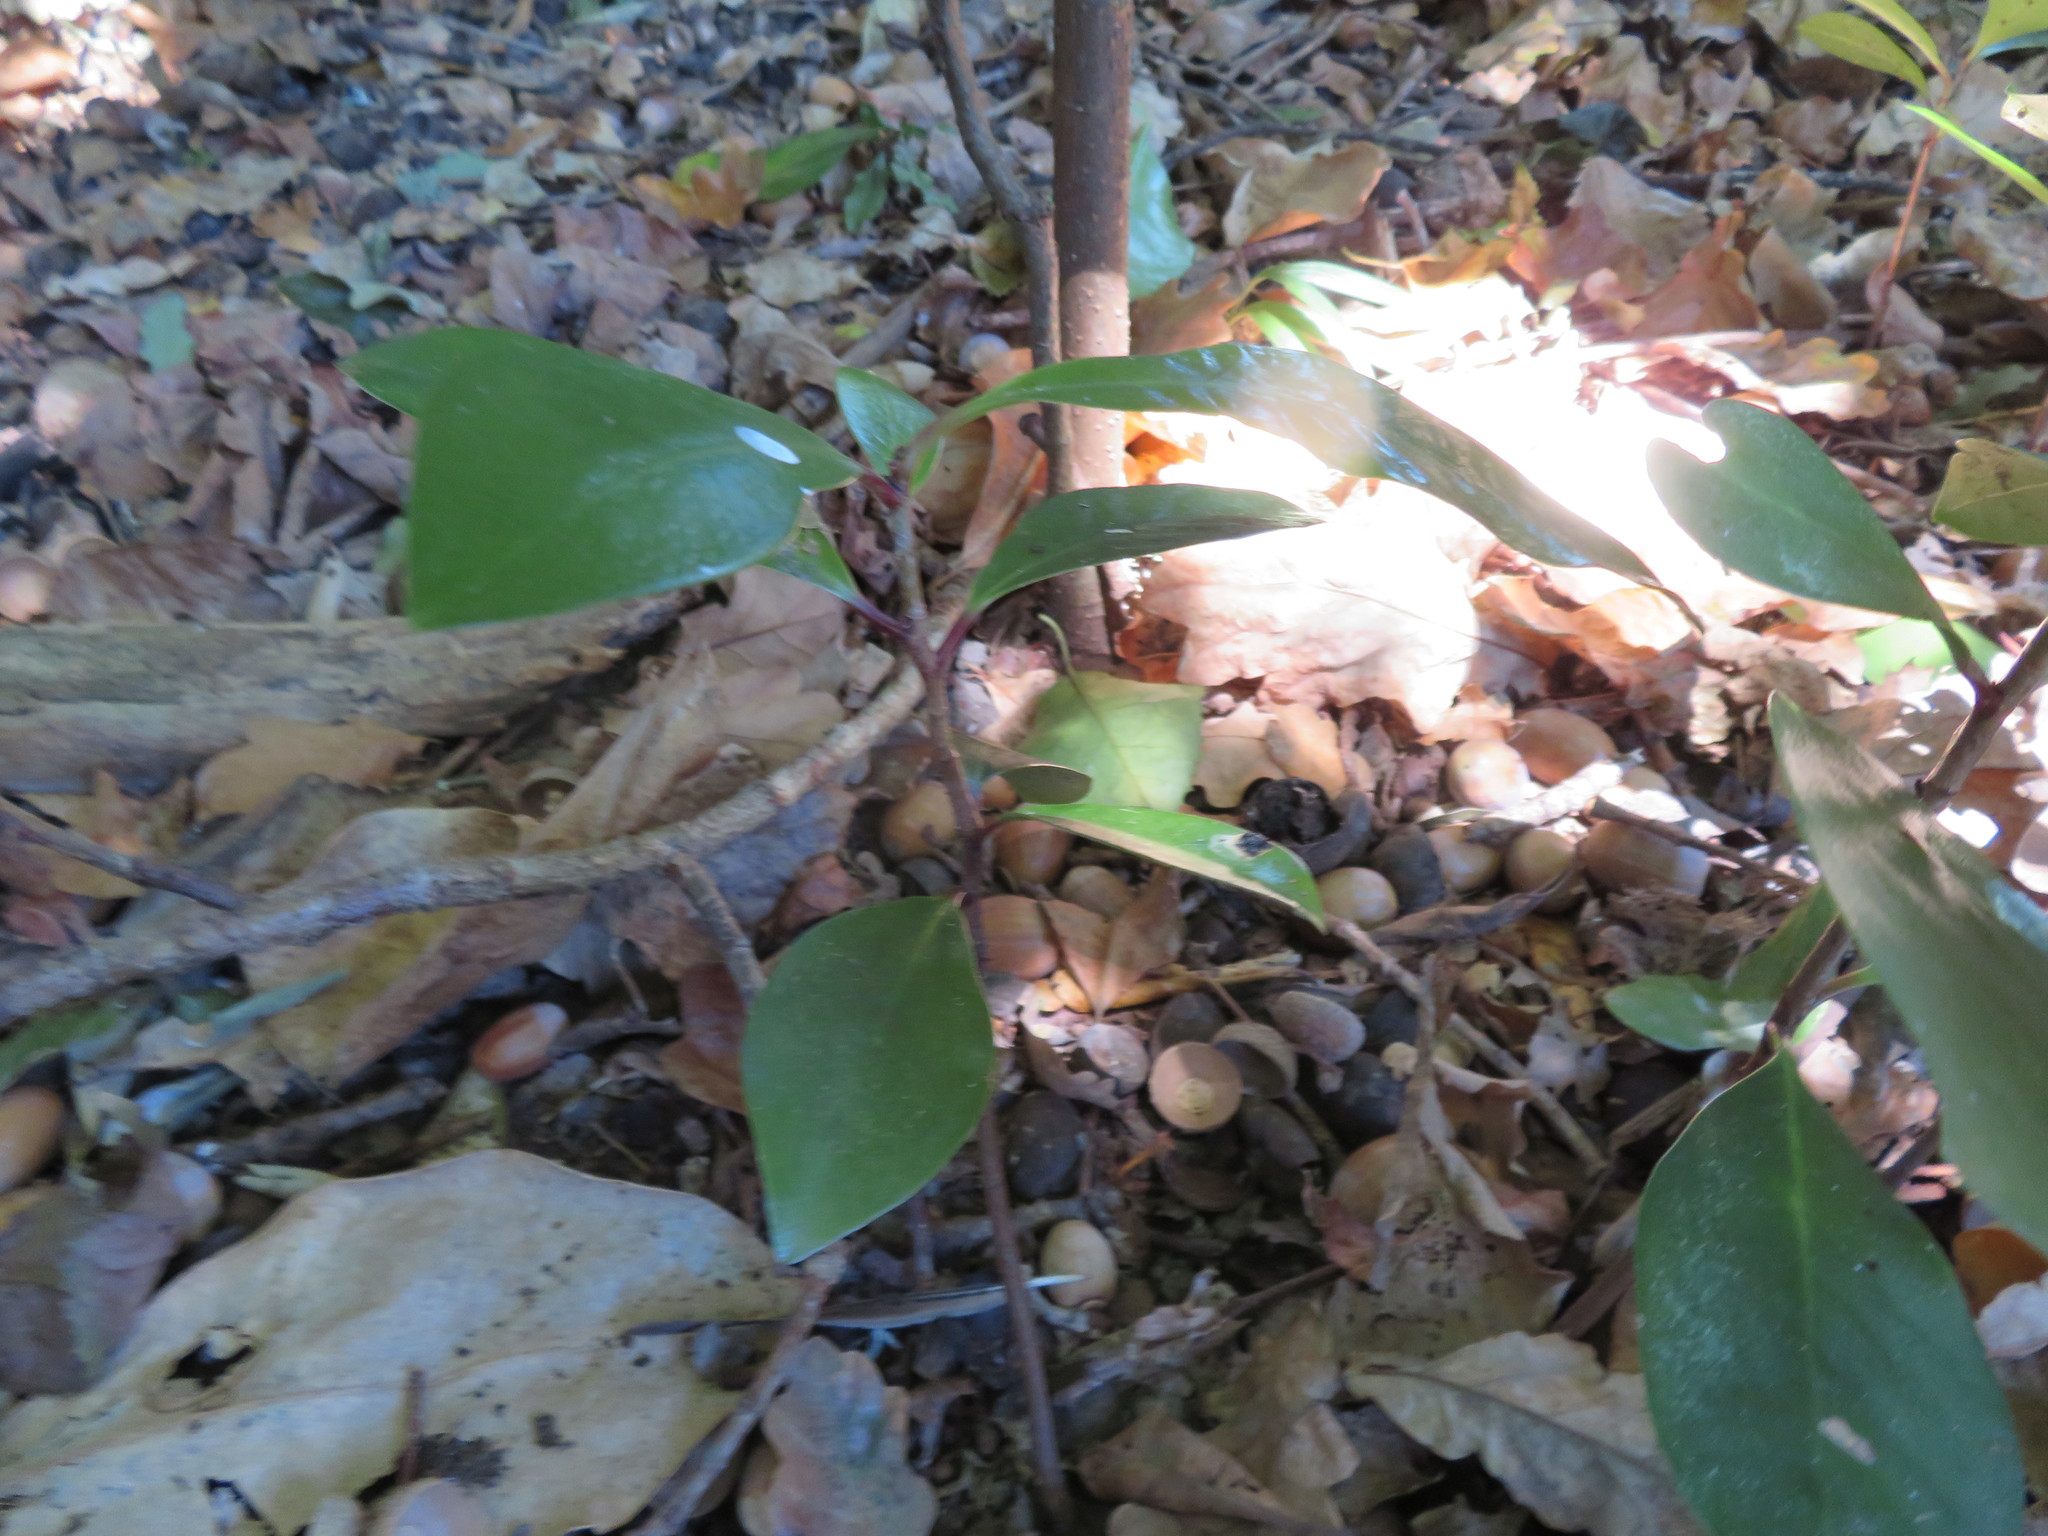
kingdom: Plantae
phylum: Tracheophyta
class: Magnoliopsida
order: Cucurbitales
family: Corynocarpaceae
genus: Corynocarpus
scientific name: Corynocarpus laevigatus
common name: New zealand laurel
